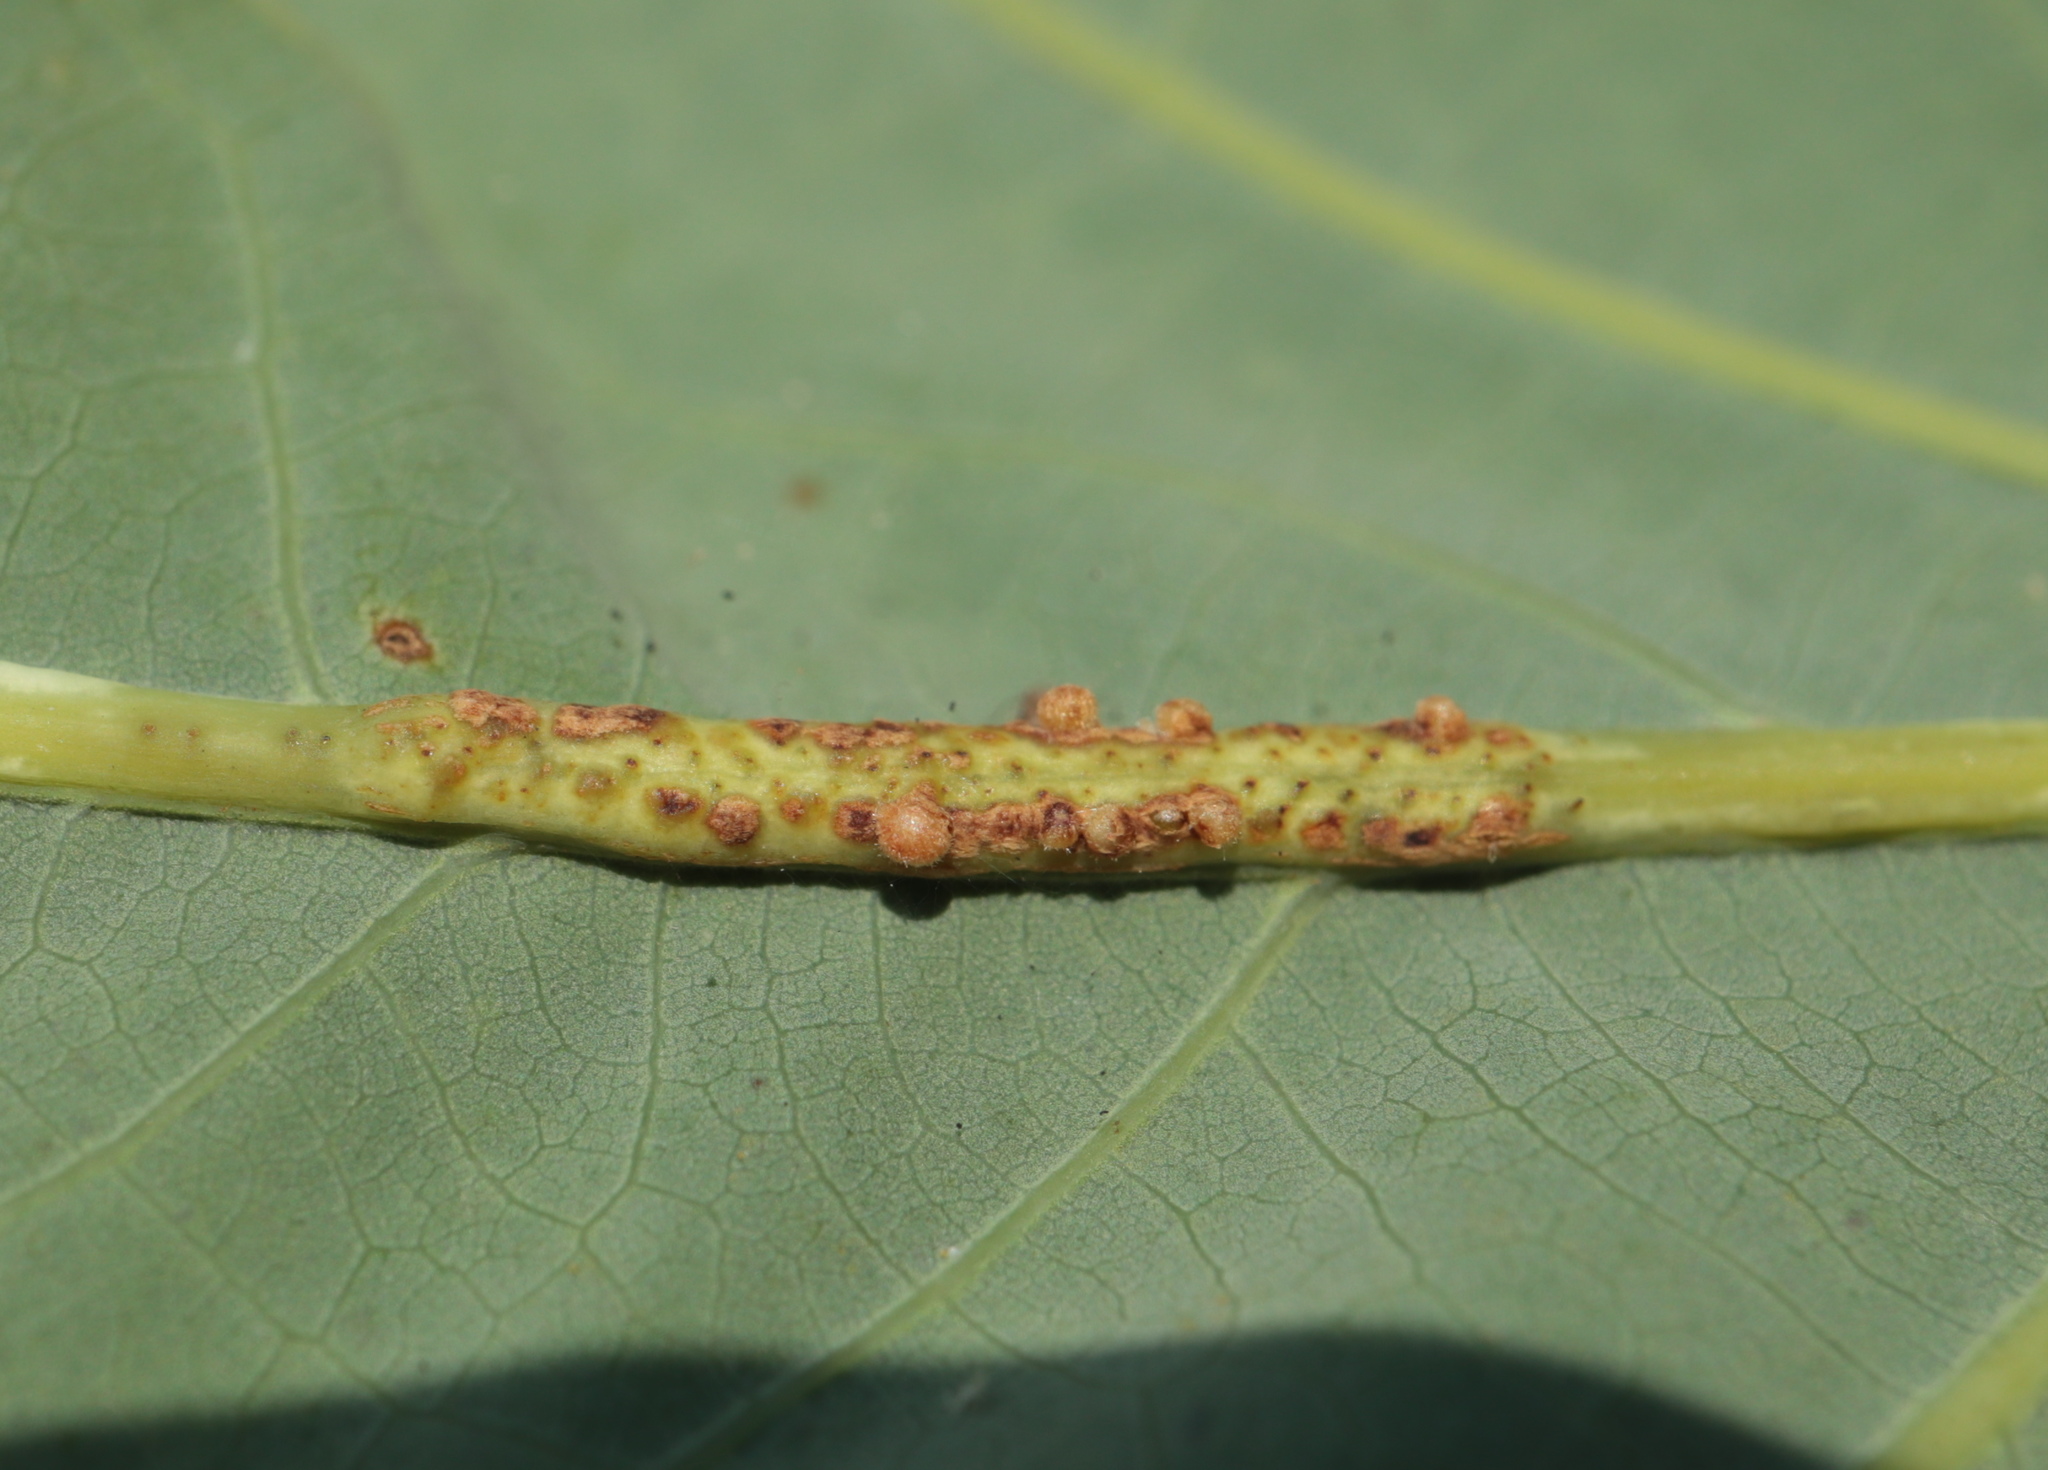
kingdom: Animalia
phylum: Arthropoda
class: Insecta
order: Hymenoptera
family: Cynipidae
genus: Andricus
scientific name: Andricus
